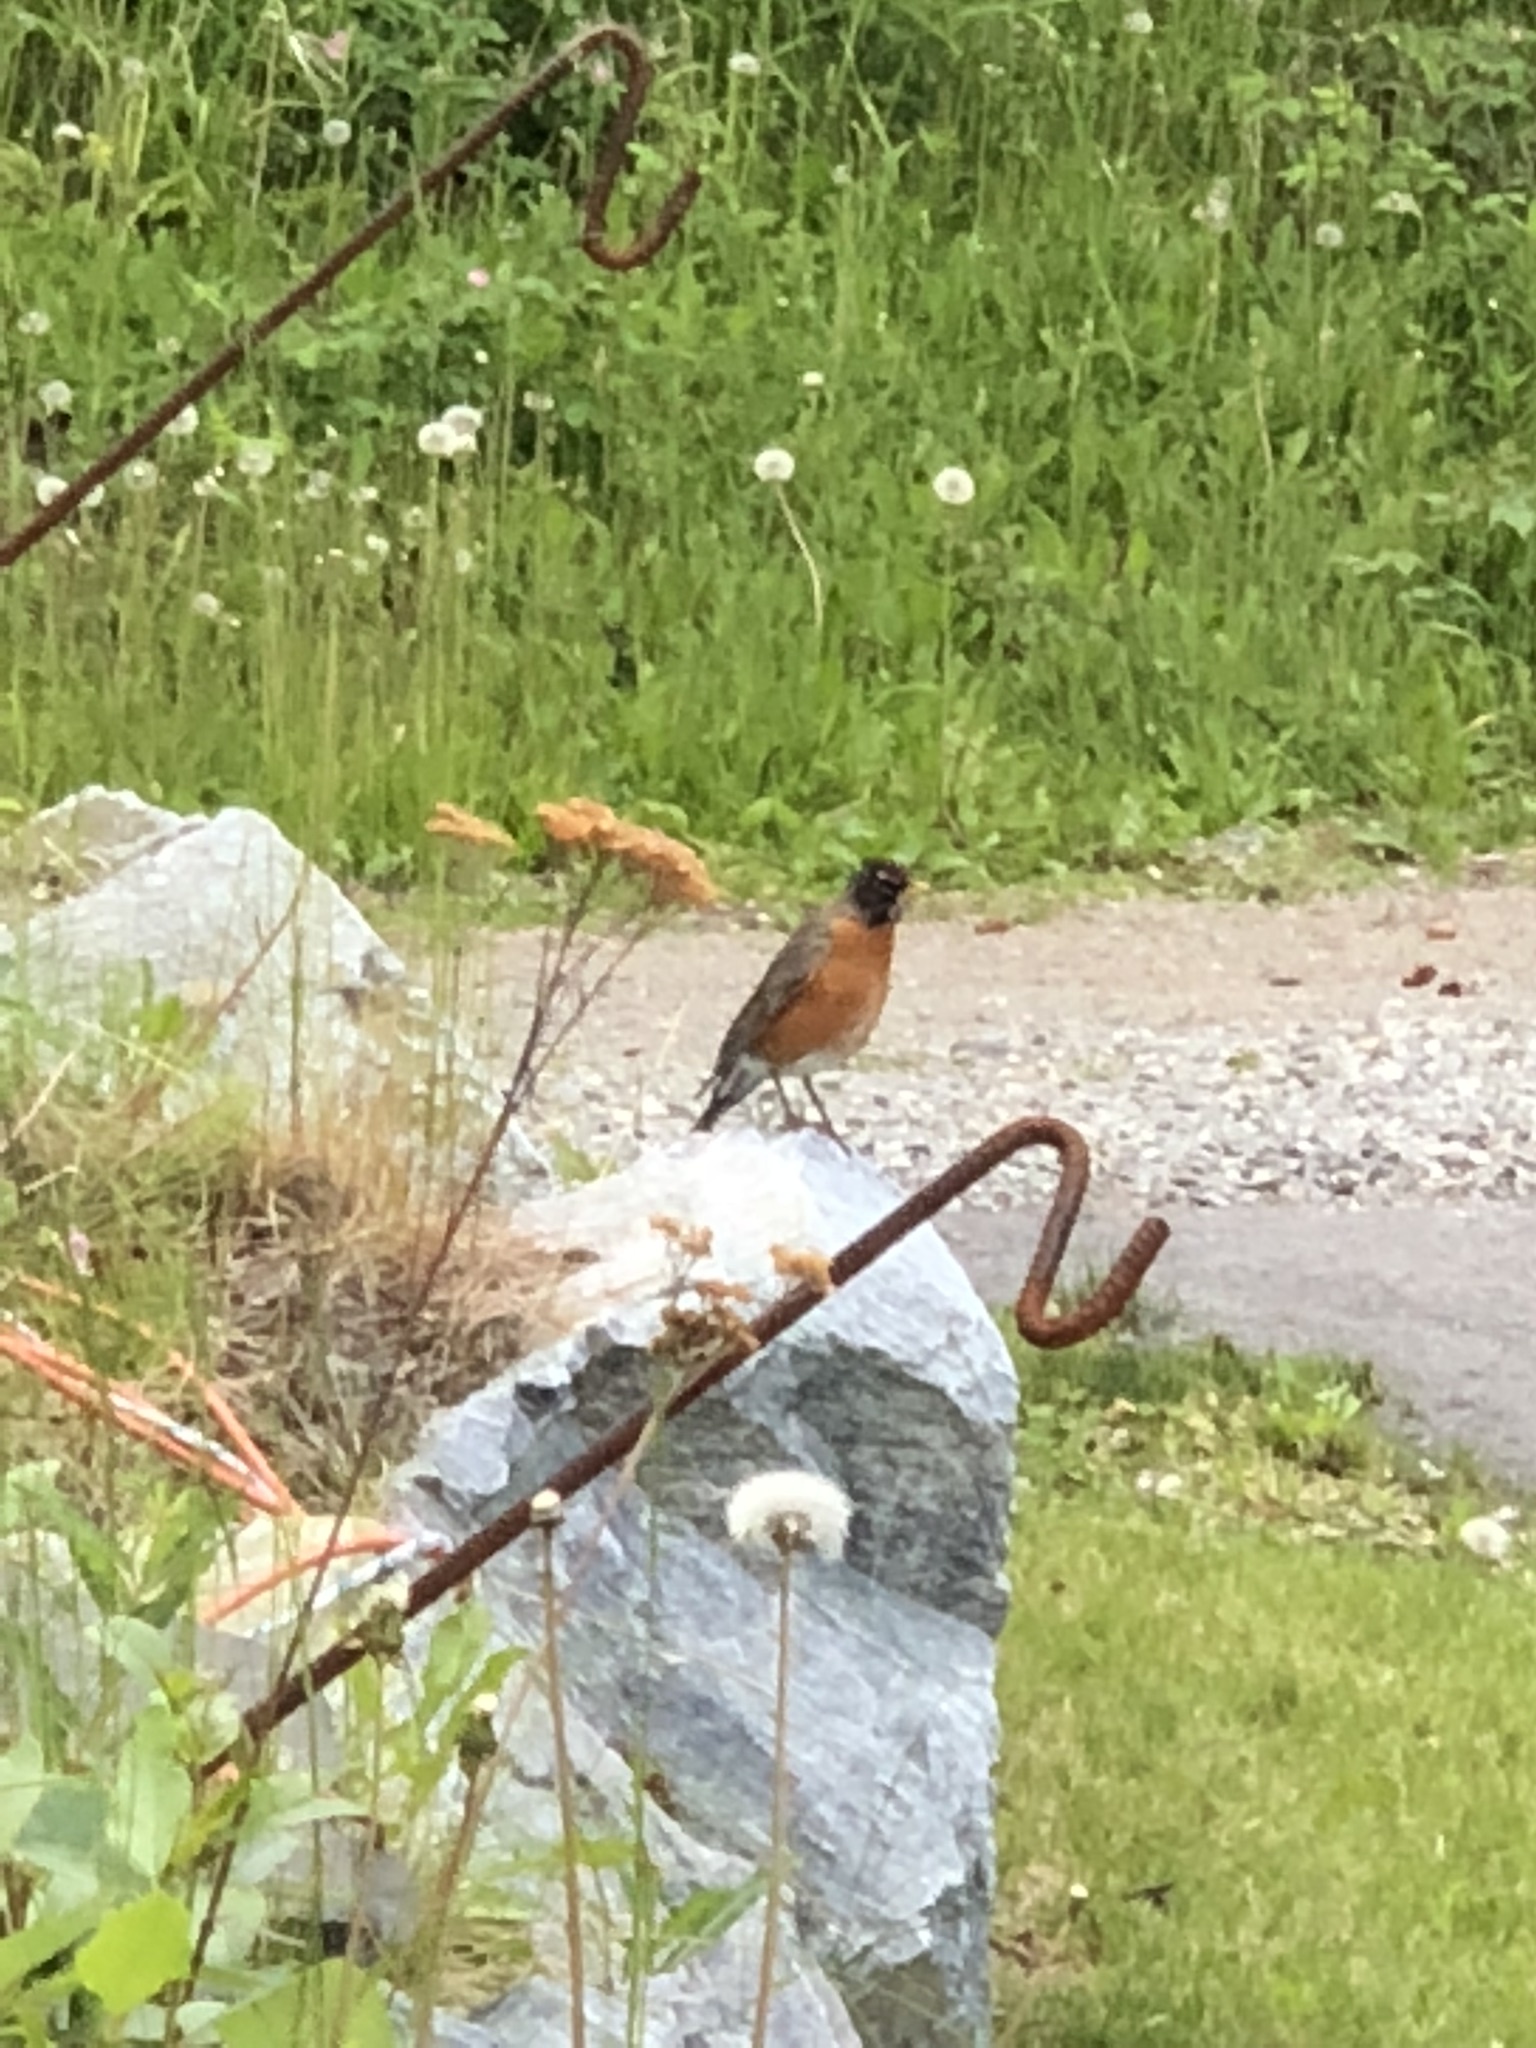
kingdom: Animalia
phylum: Chordata
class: Aves
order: Passeriformes
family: Turdidae
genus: Turdus
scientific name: Turdus migratorius
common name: American robin
